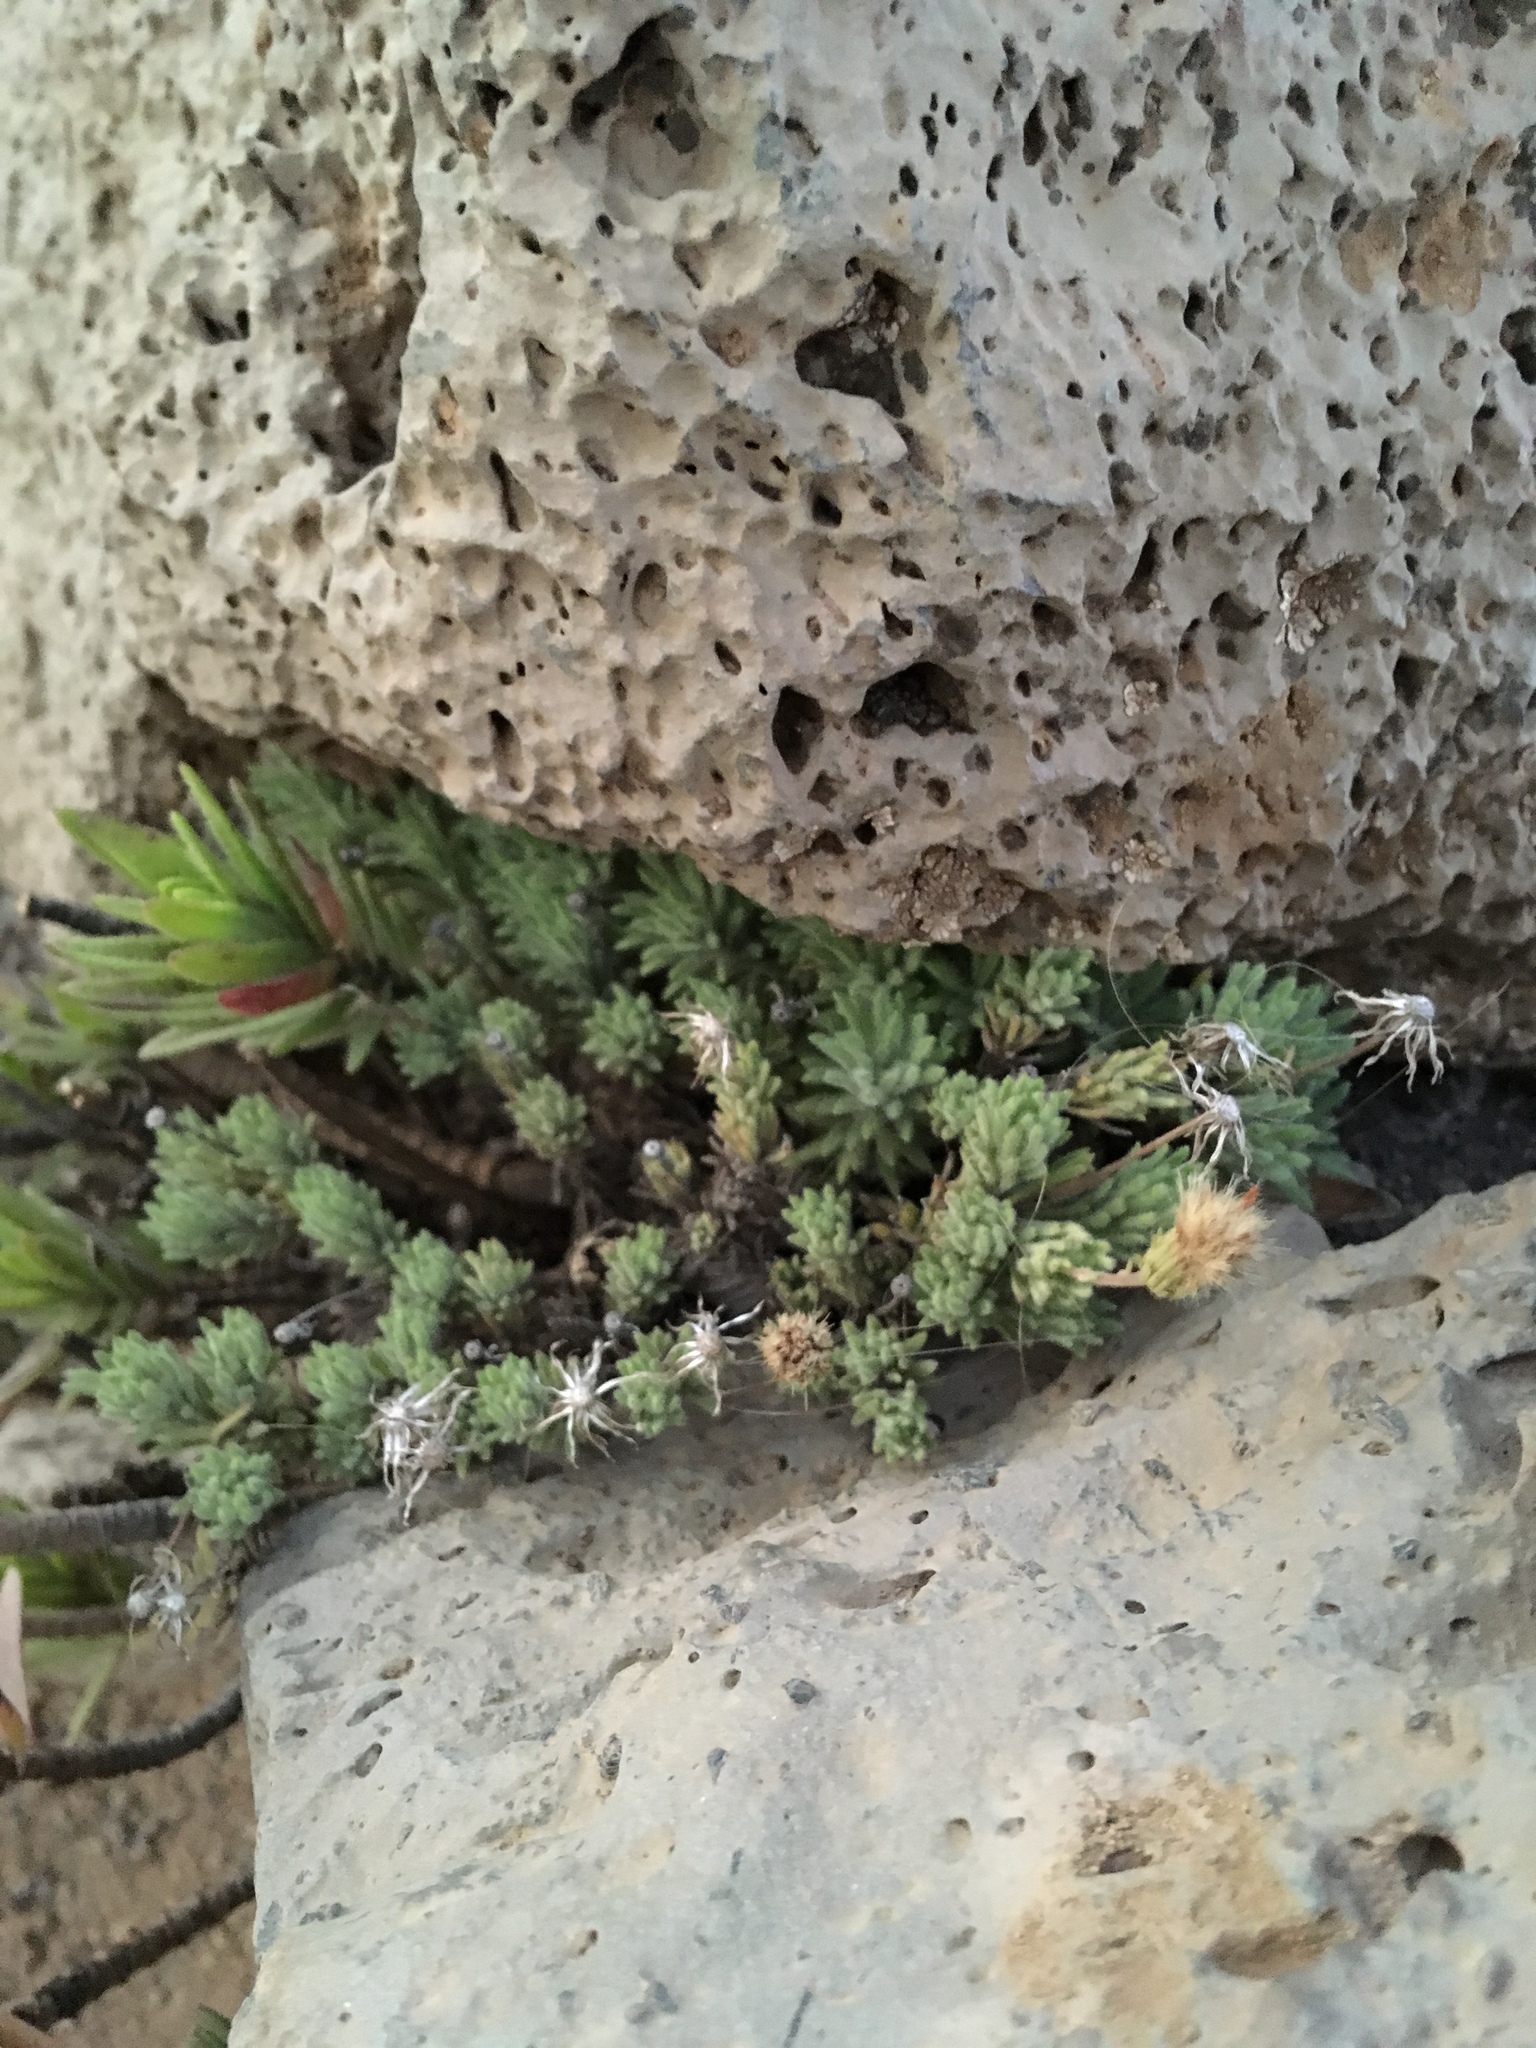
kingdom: Plantae
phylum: Tracheophyta
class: Magnoliopsida
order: Asterales
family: Asteraceae
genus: Tetramolopium
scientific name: Tetramolopium humile
